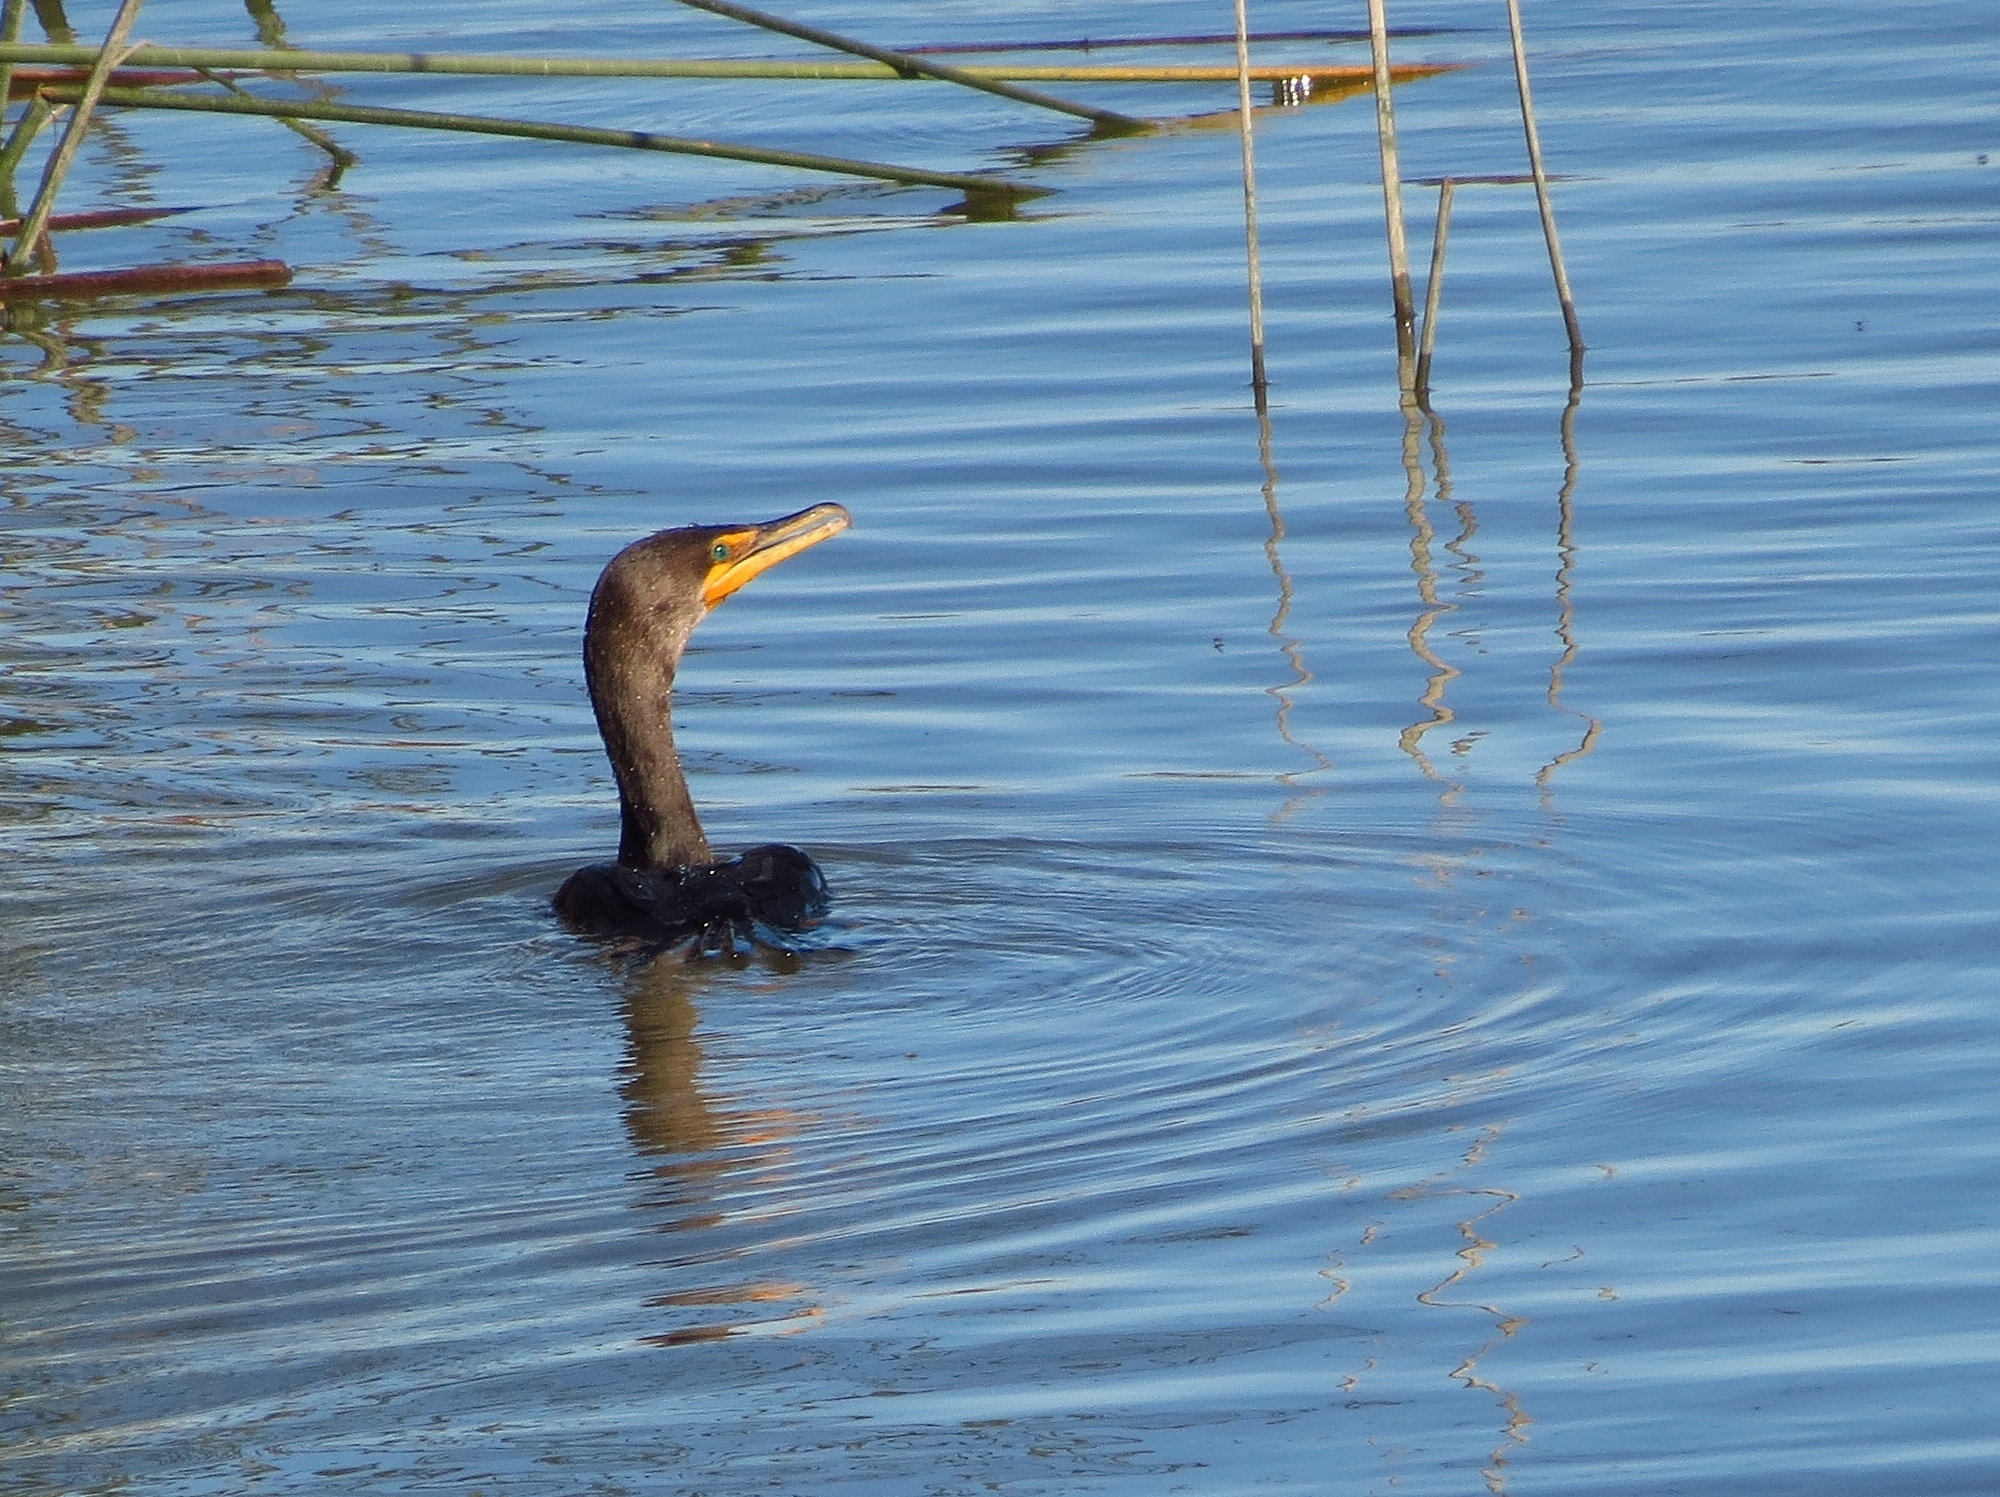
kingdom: Animalia
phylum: Chordata
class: Aves
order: Suliformes
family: Phalacrocoracidae
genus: Phalacrocorax
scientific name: Phalacrocorax auritus
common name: Double-crested cormorant
